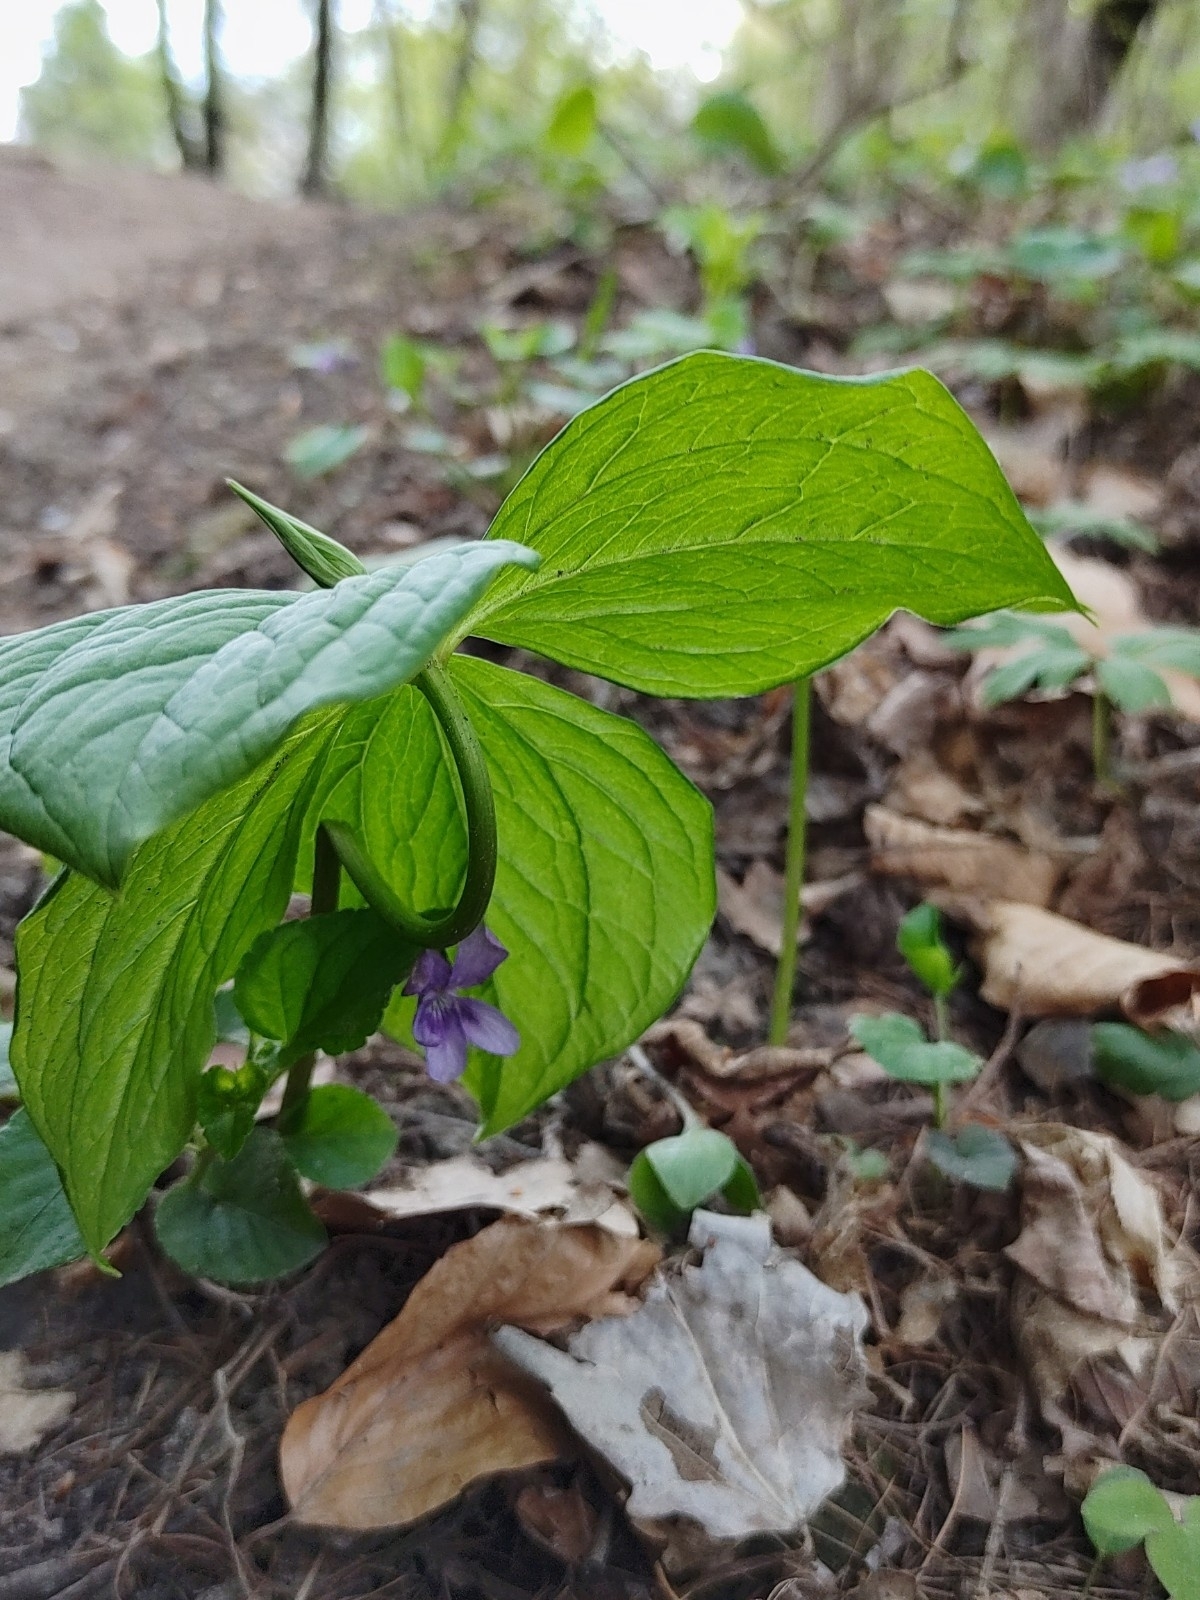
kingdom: Plantae
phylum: Tracheophyta
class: Liliopsida
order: Liliales
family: Melanthiaceae
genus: Paris
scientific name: Paris quadrifolia
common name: Herb-paris
